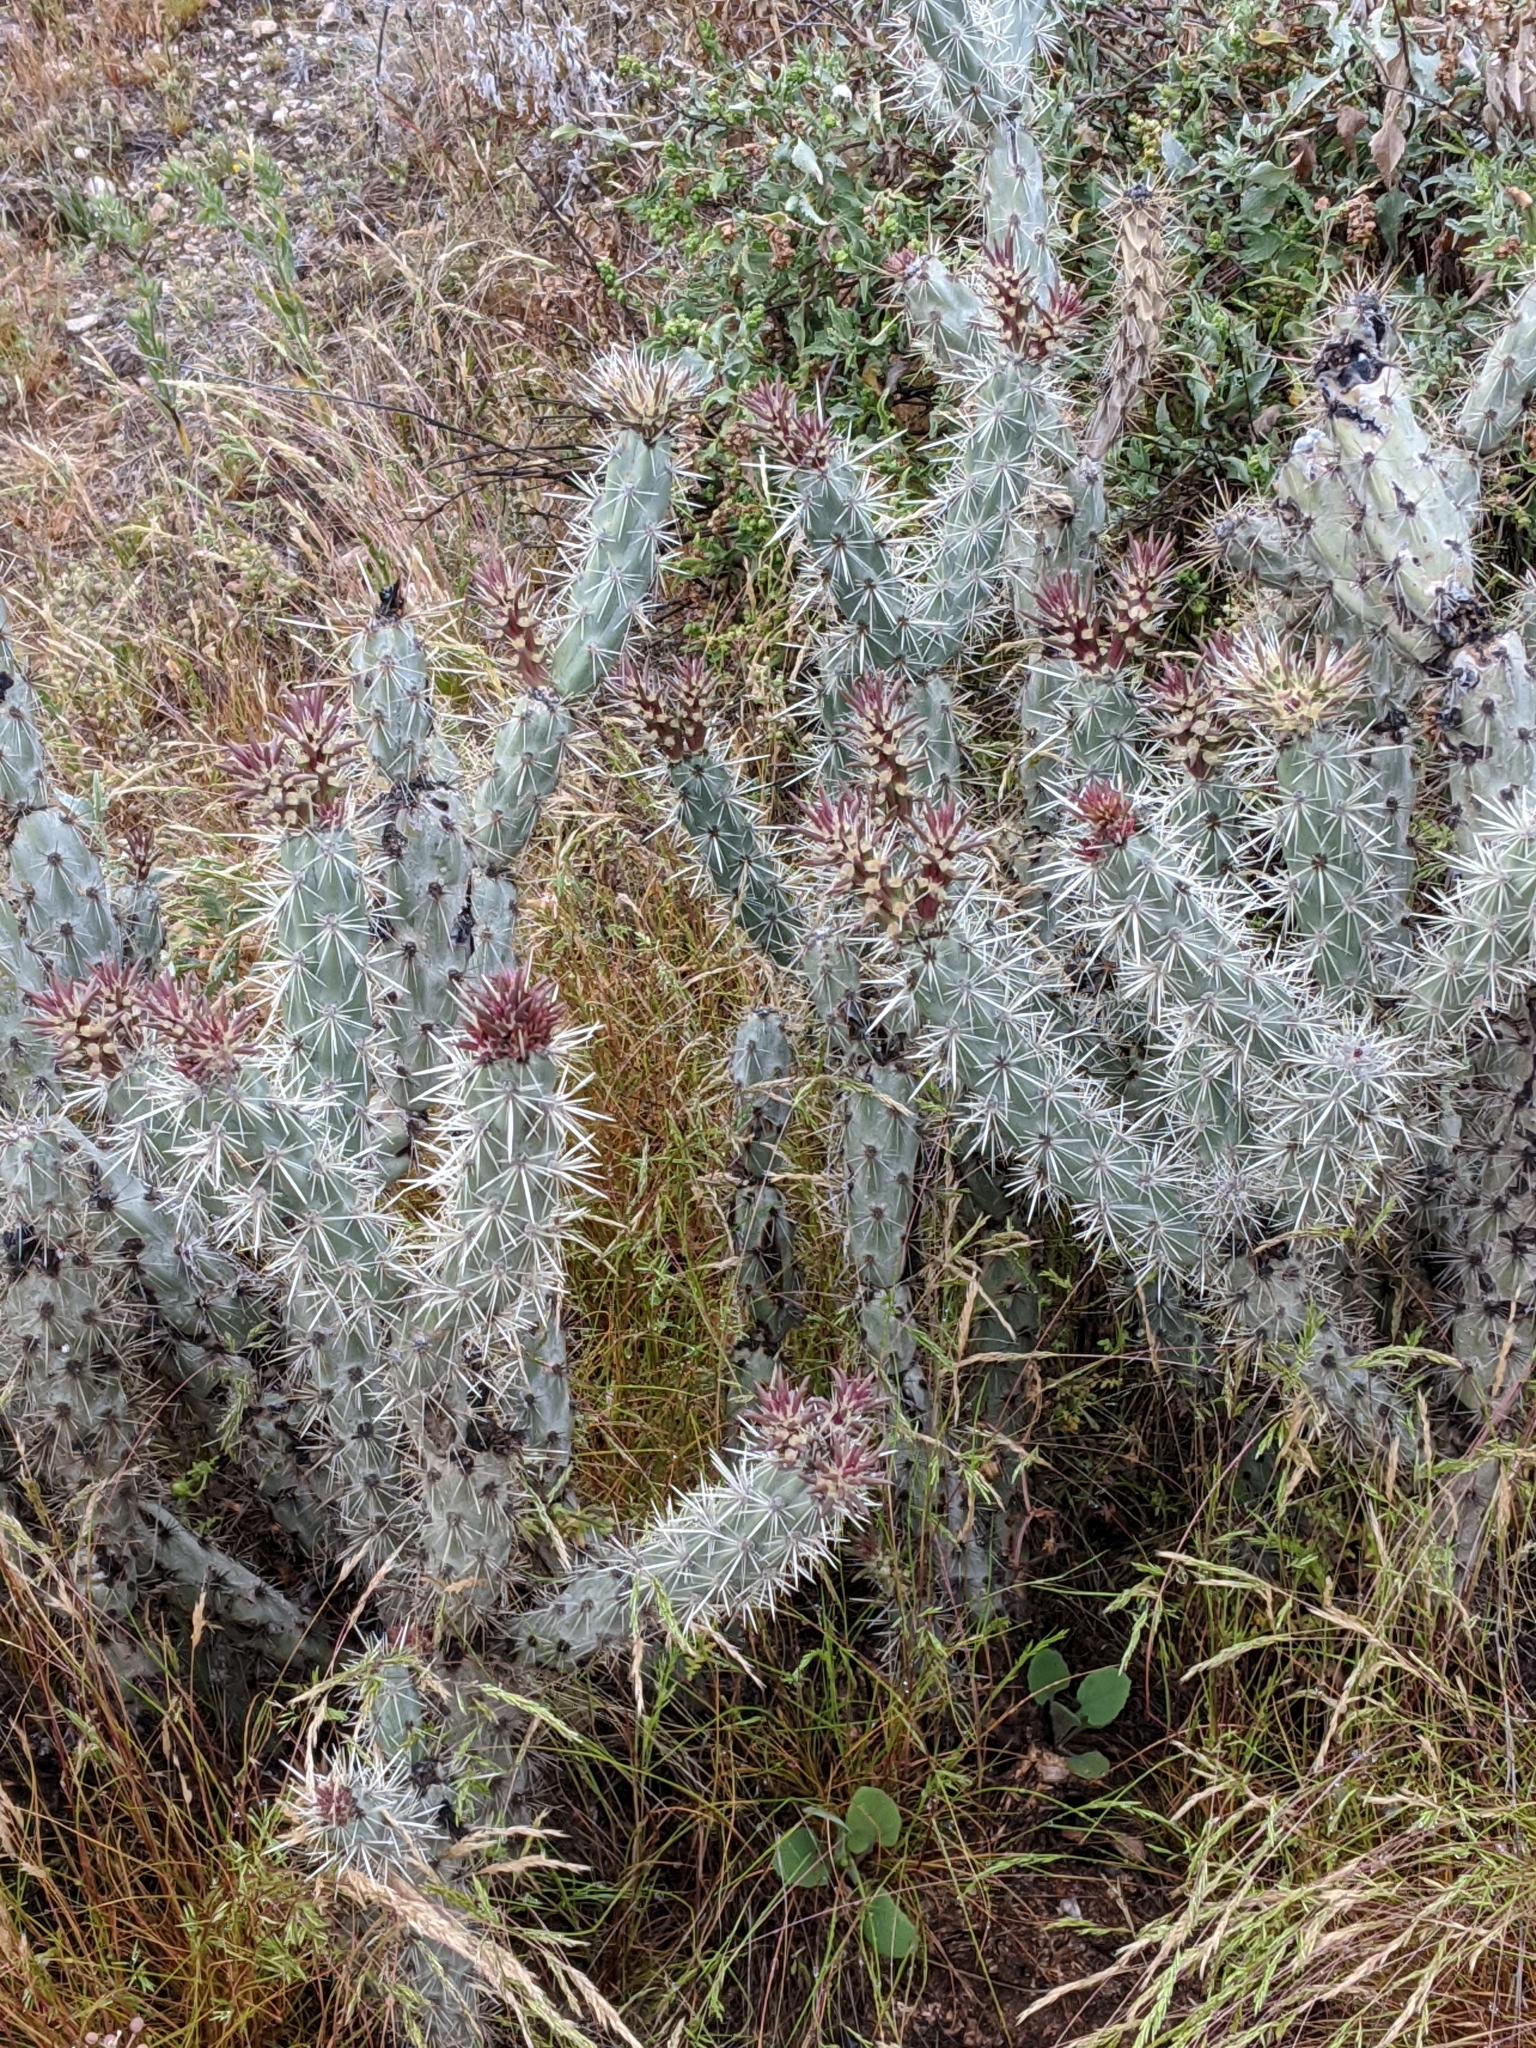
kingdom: Plantae
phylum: Tracheophyta
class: Magnoliopsida
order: Caryophyllales
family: Cactaceae
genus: Cylindropuntia
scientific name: Cylindropuntia acanthocarpa
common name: Buckhorn cholla
